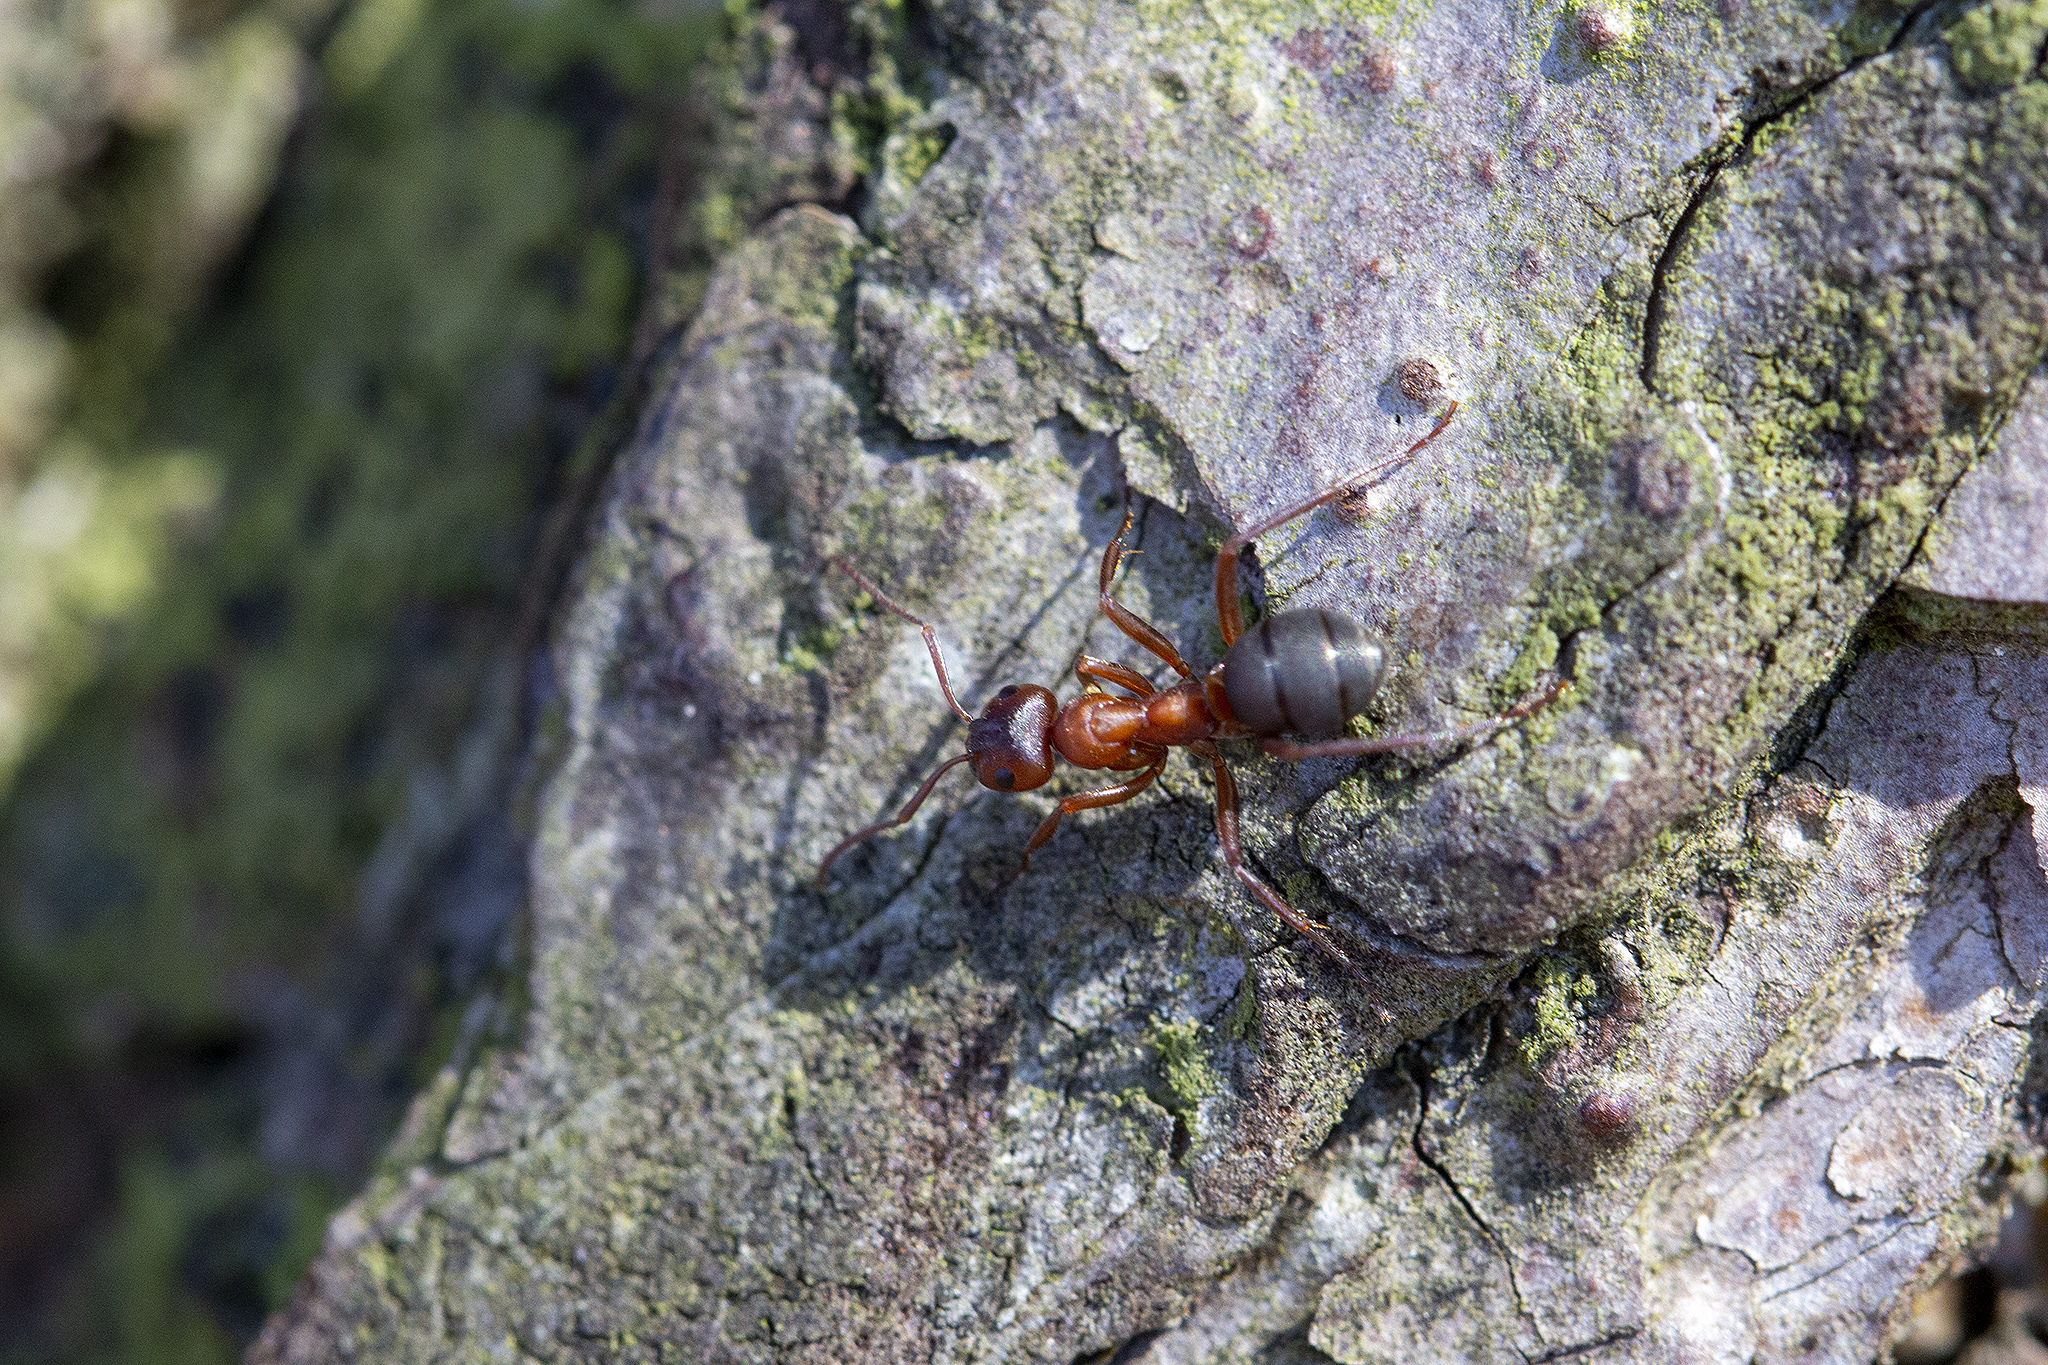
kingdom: Animalia
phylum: Arthropoda
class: Insecta
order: Hymenoptera
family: Formicidae
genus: Formica
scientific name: Formica sanguinea
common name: Blood-red ant
